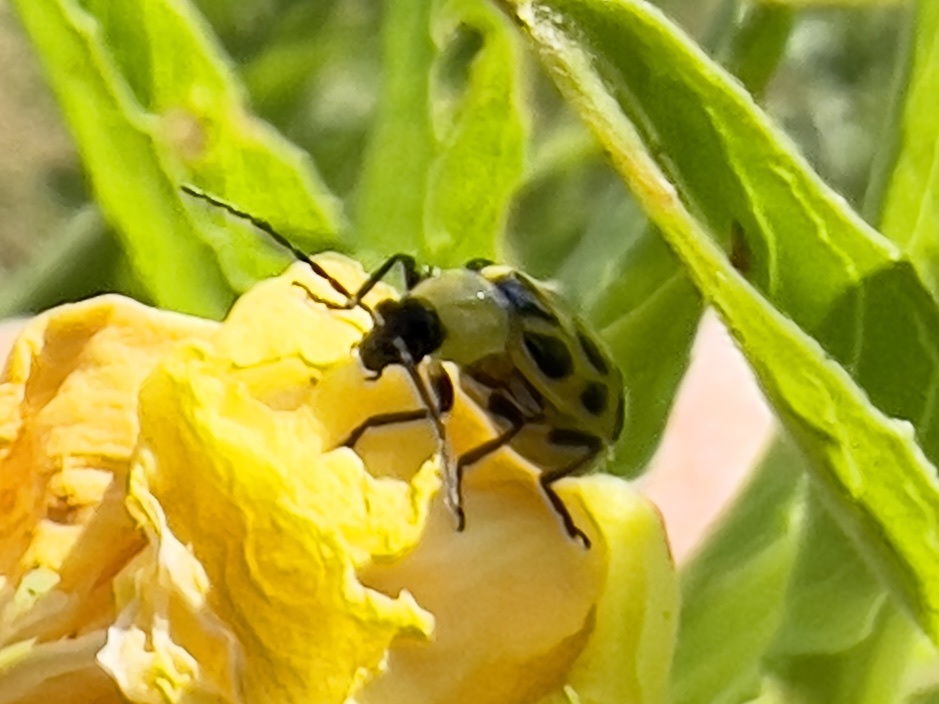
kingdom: Animalia
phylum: Arthropoda
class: Insecta
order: Coleoptera
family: Chrysomelidae
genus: Diabrotica
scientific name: Diabrotica undecimpunctata
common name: Spotted cucumber beetle
